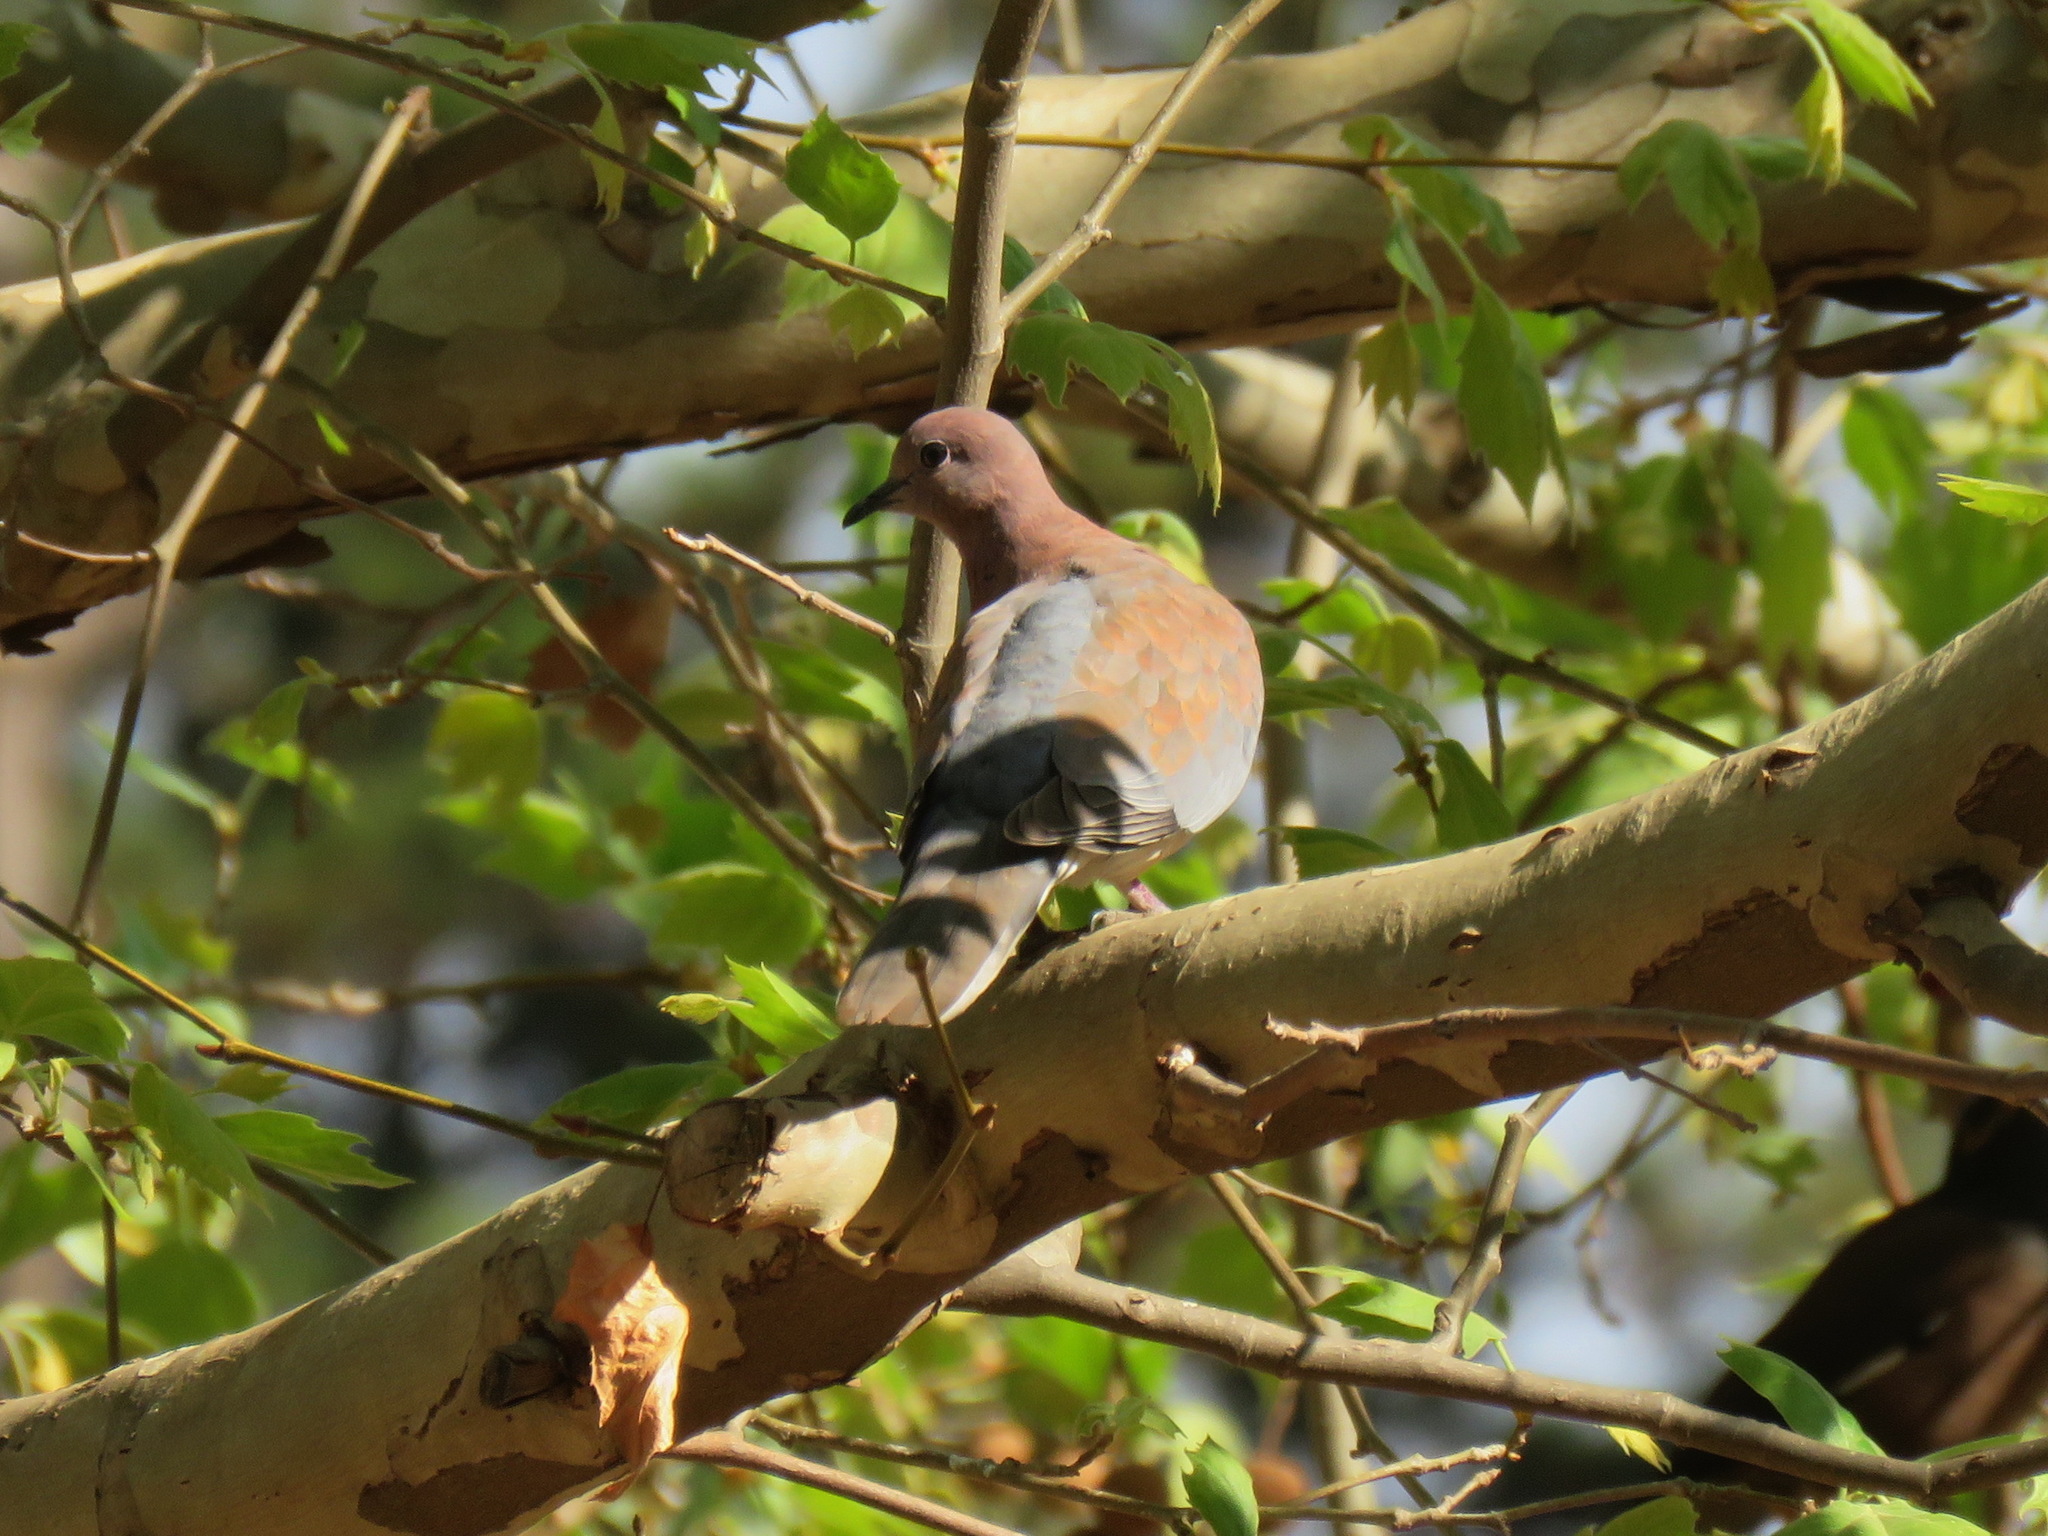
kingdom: Animalia
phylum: Chordata
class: Aves
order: Columbiformes
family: Columbidae
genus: Spilopelia
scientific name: Spilopelia senegalensis
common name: Laughing dove
